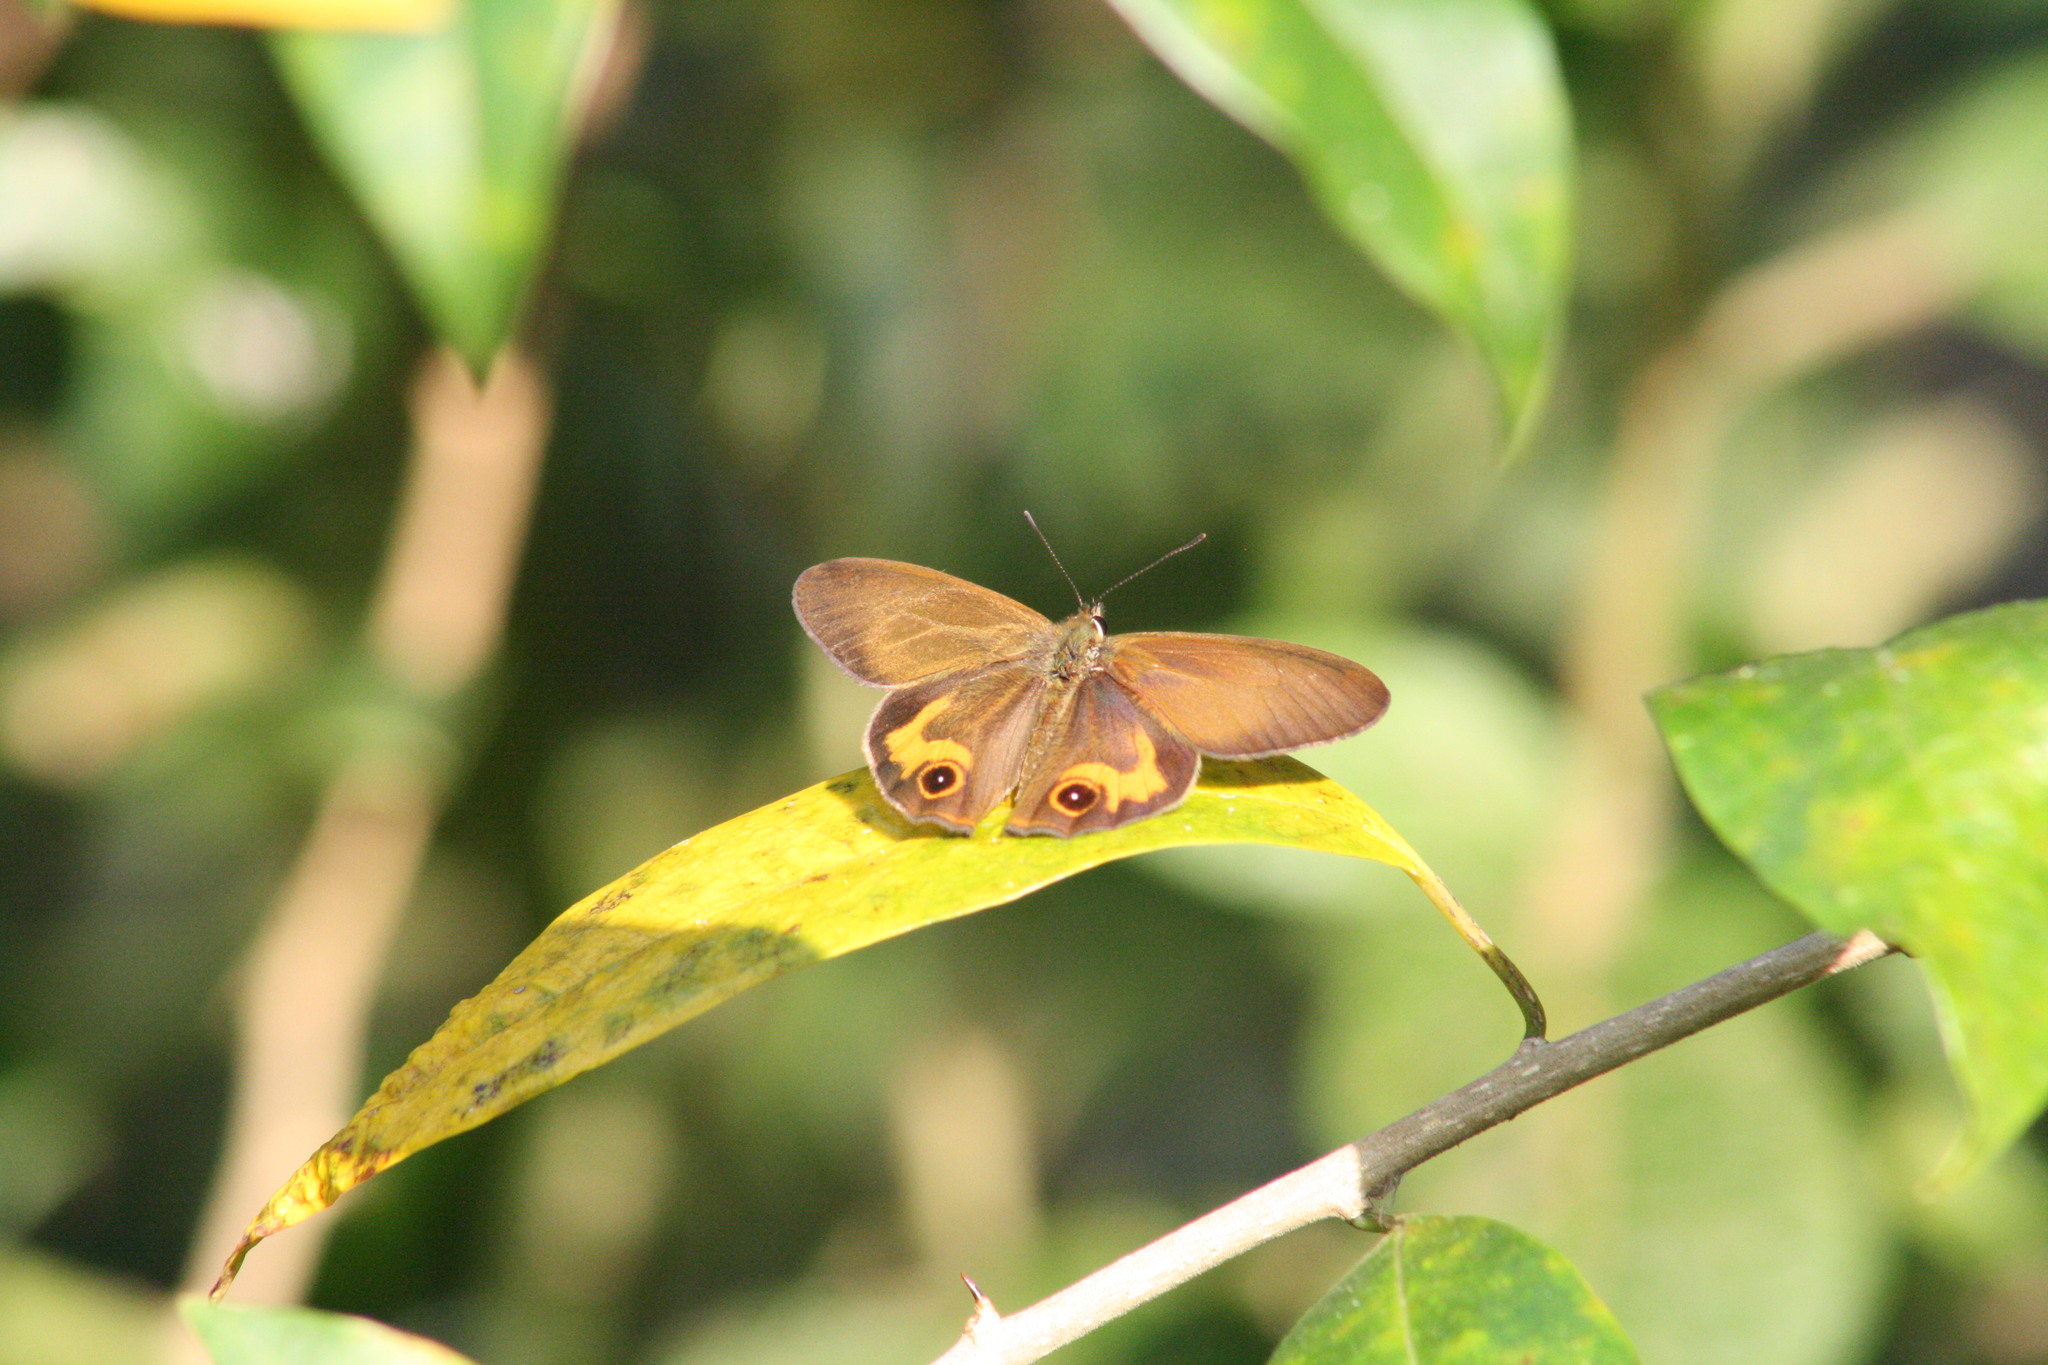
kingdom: Animalia
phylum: Arthropoda
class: Insecta
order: Lepidoptera
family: Nymphalidae
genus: Hypocysta
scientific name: Hypocysta metirius
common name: Brown ringlet
